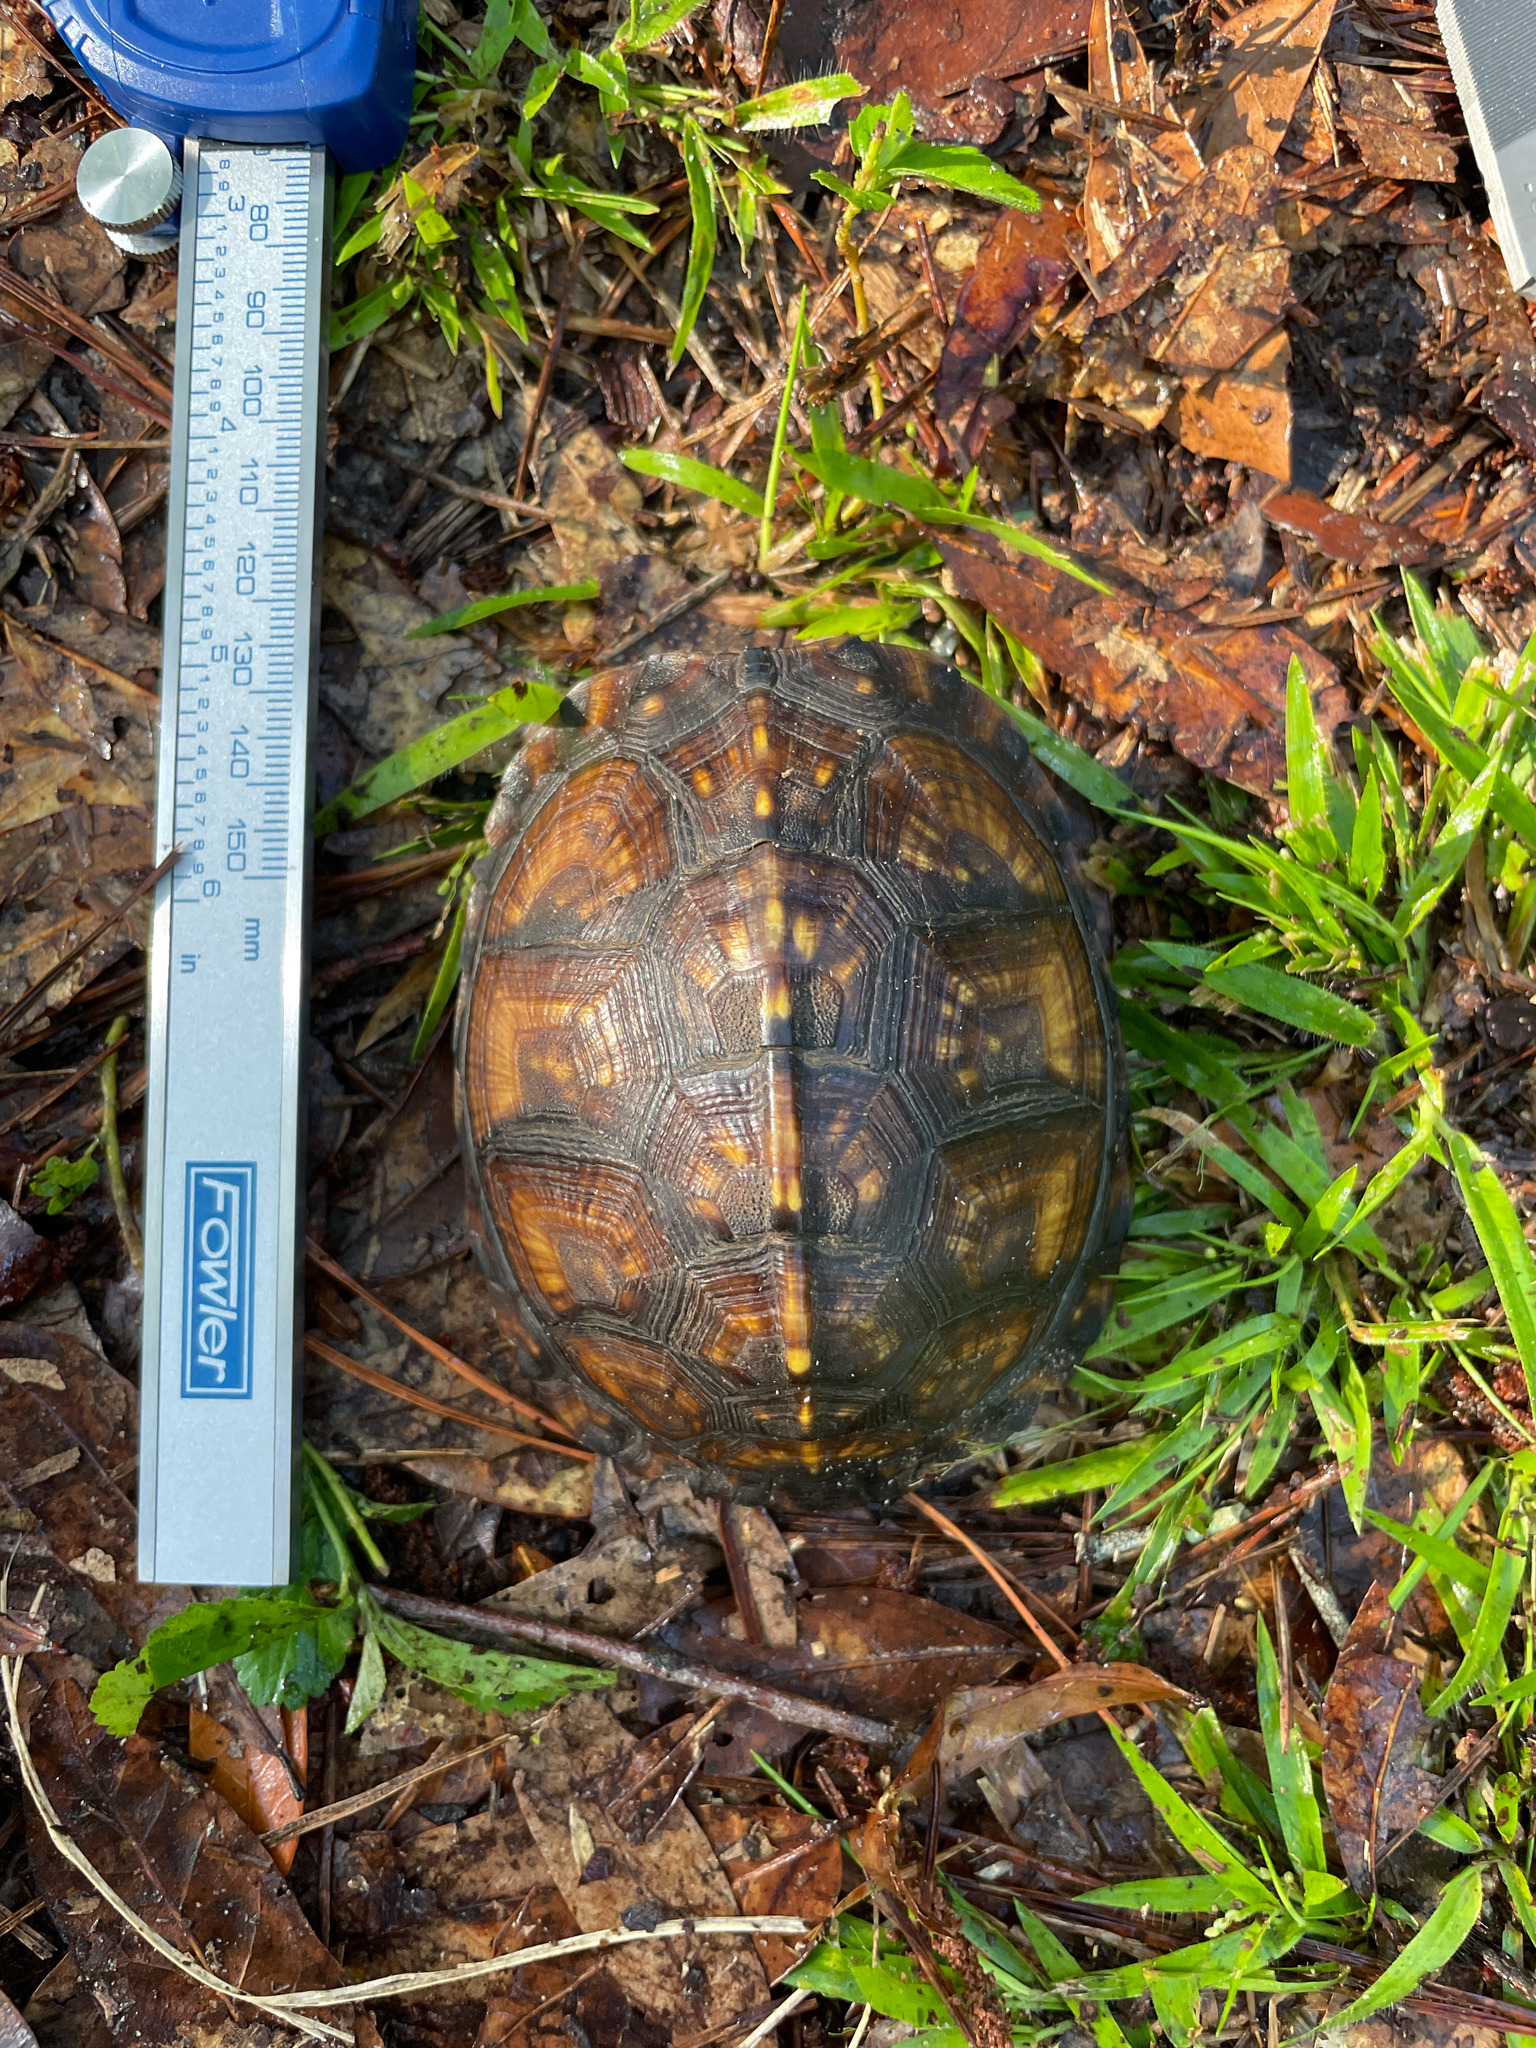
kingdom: Animalia
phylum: Chordata
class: Testudines
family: Emydidae
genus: Terrapene
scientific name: Terrapene carolina
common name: Common box turtle
